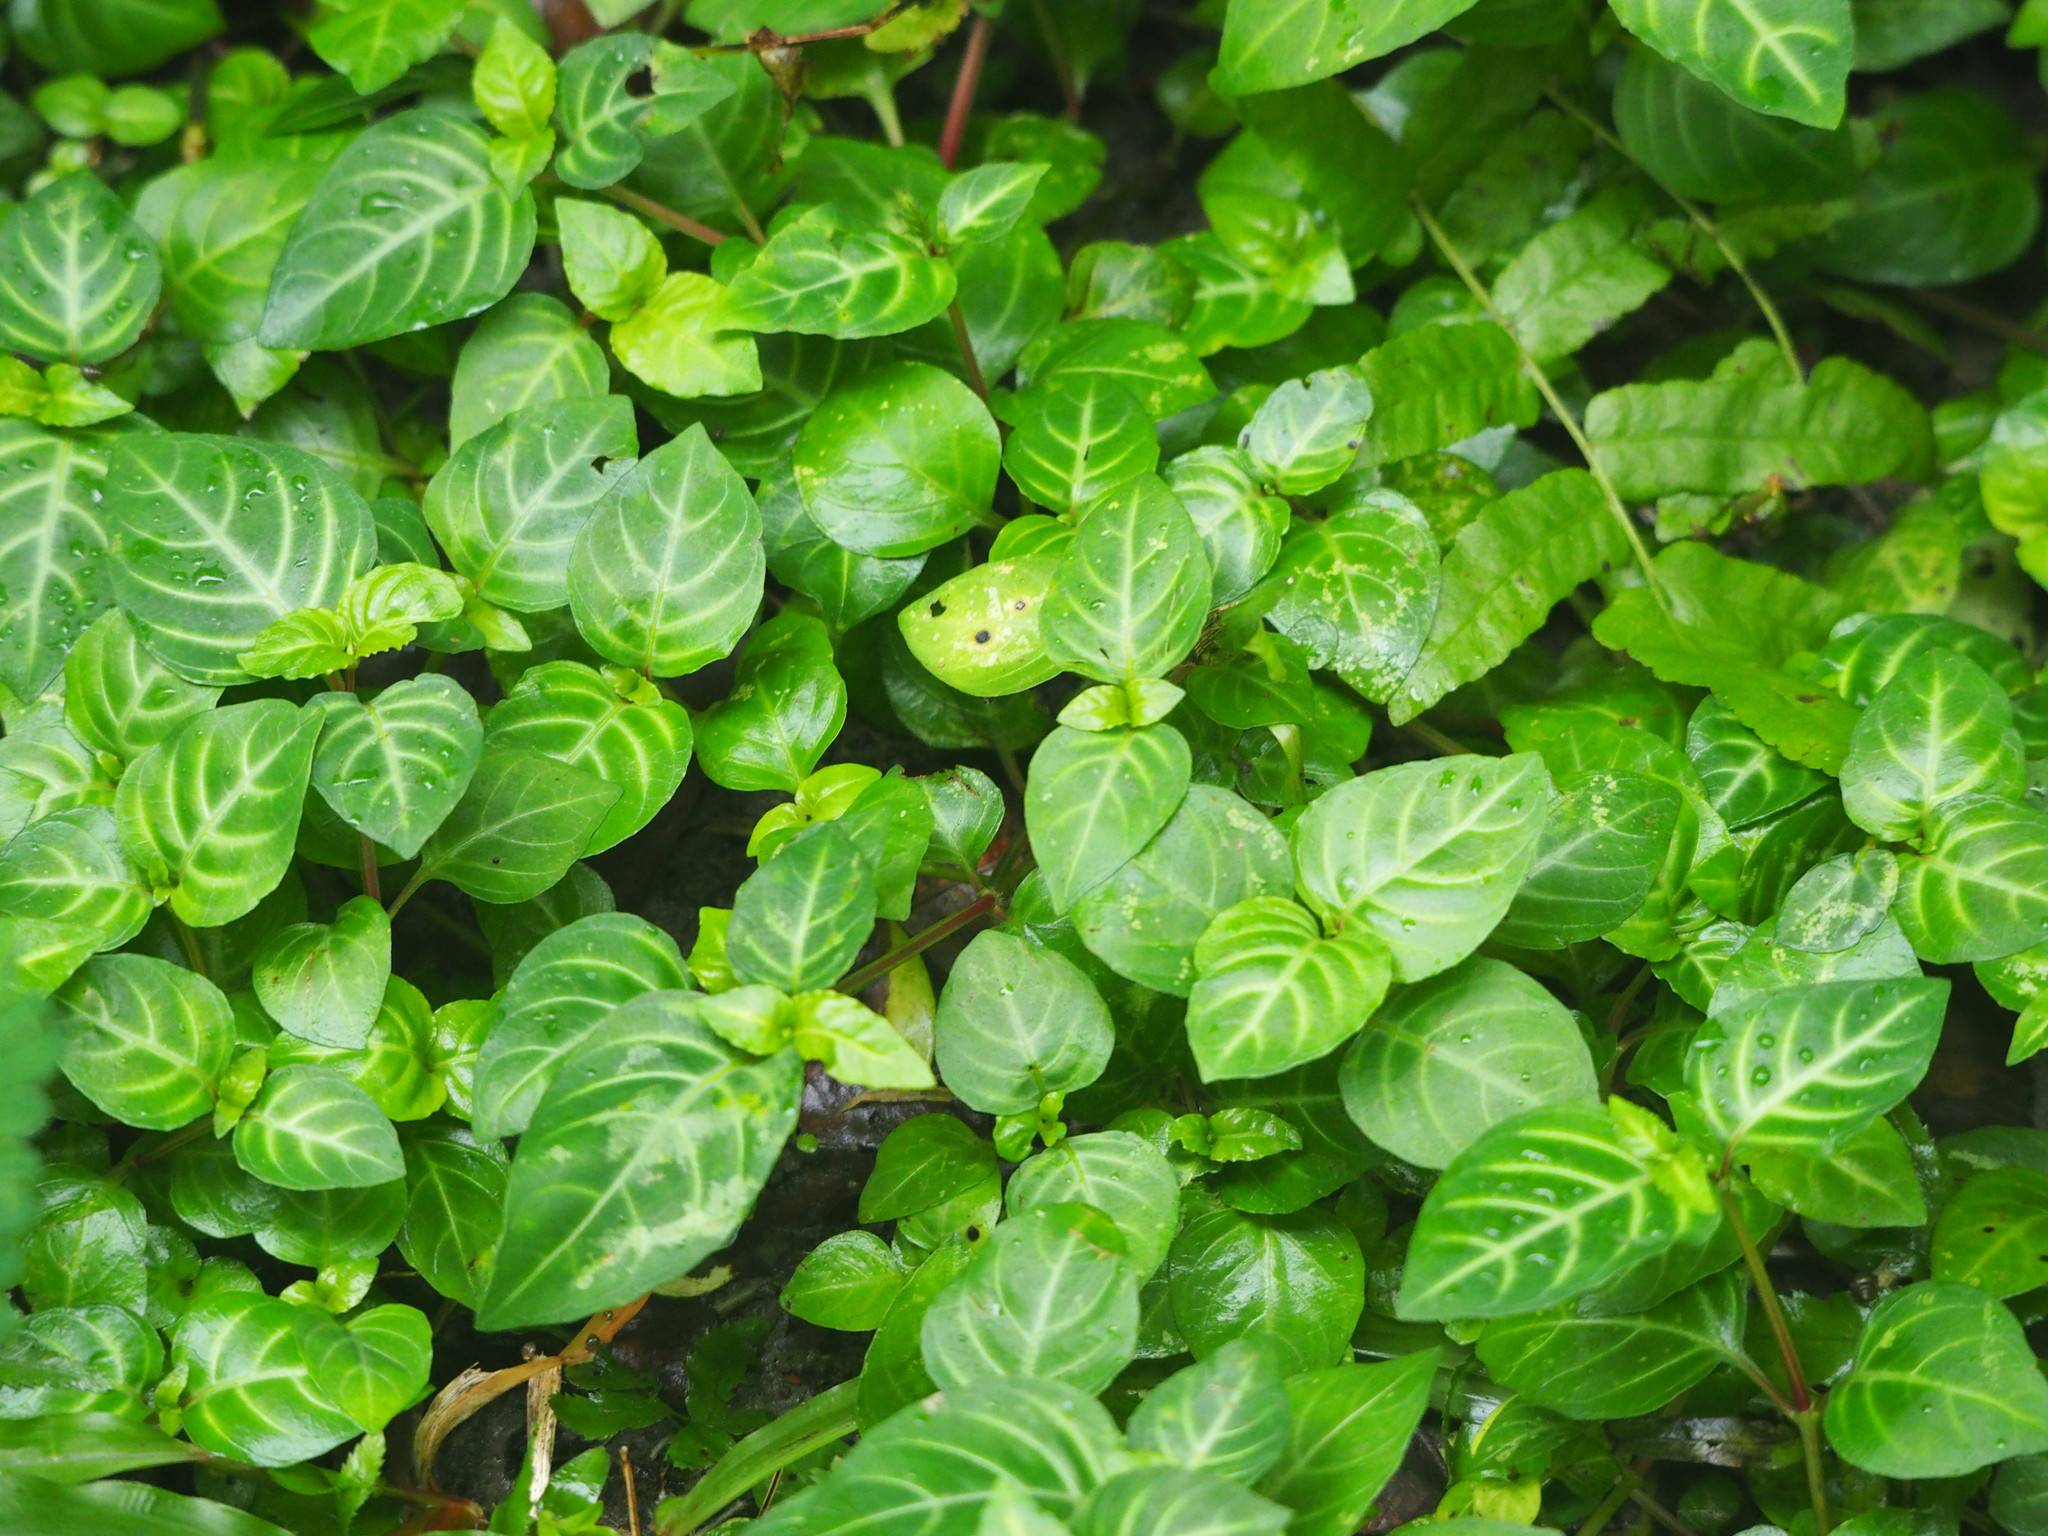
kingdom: Plantae
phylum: Tracheophyta
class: Magnoliopsida
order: Lamiales
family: Acanthaceae
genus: Lepidagathis
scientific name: Lepidagathis inaequalis
